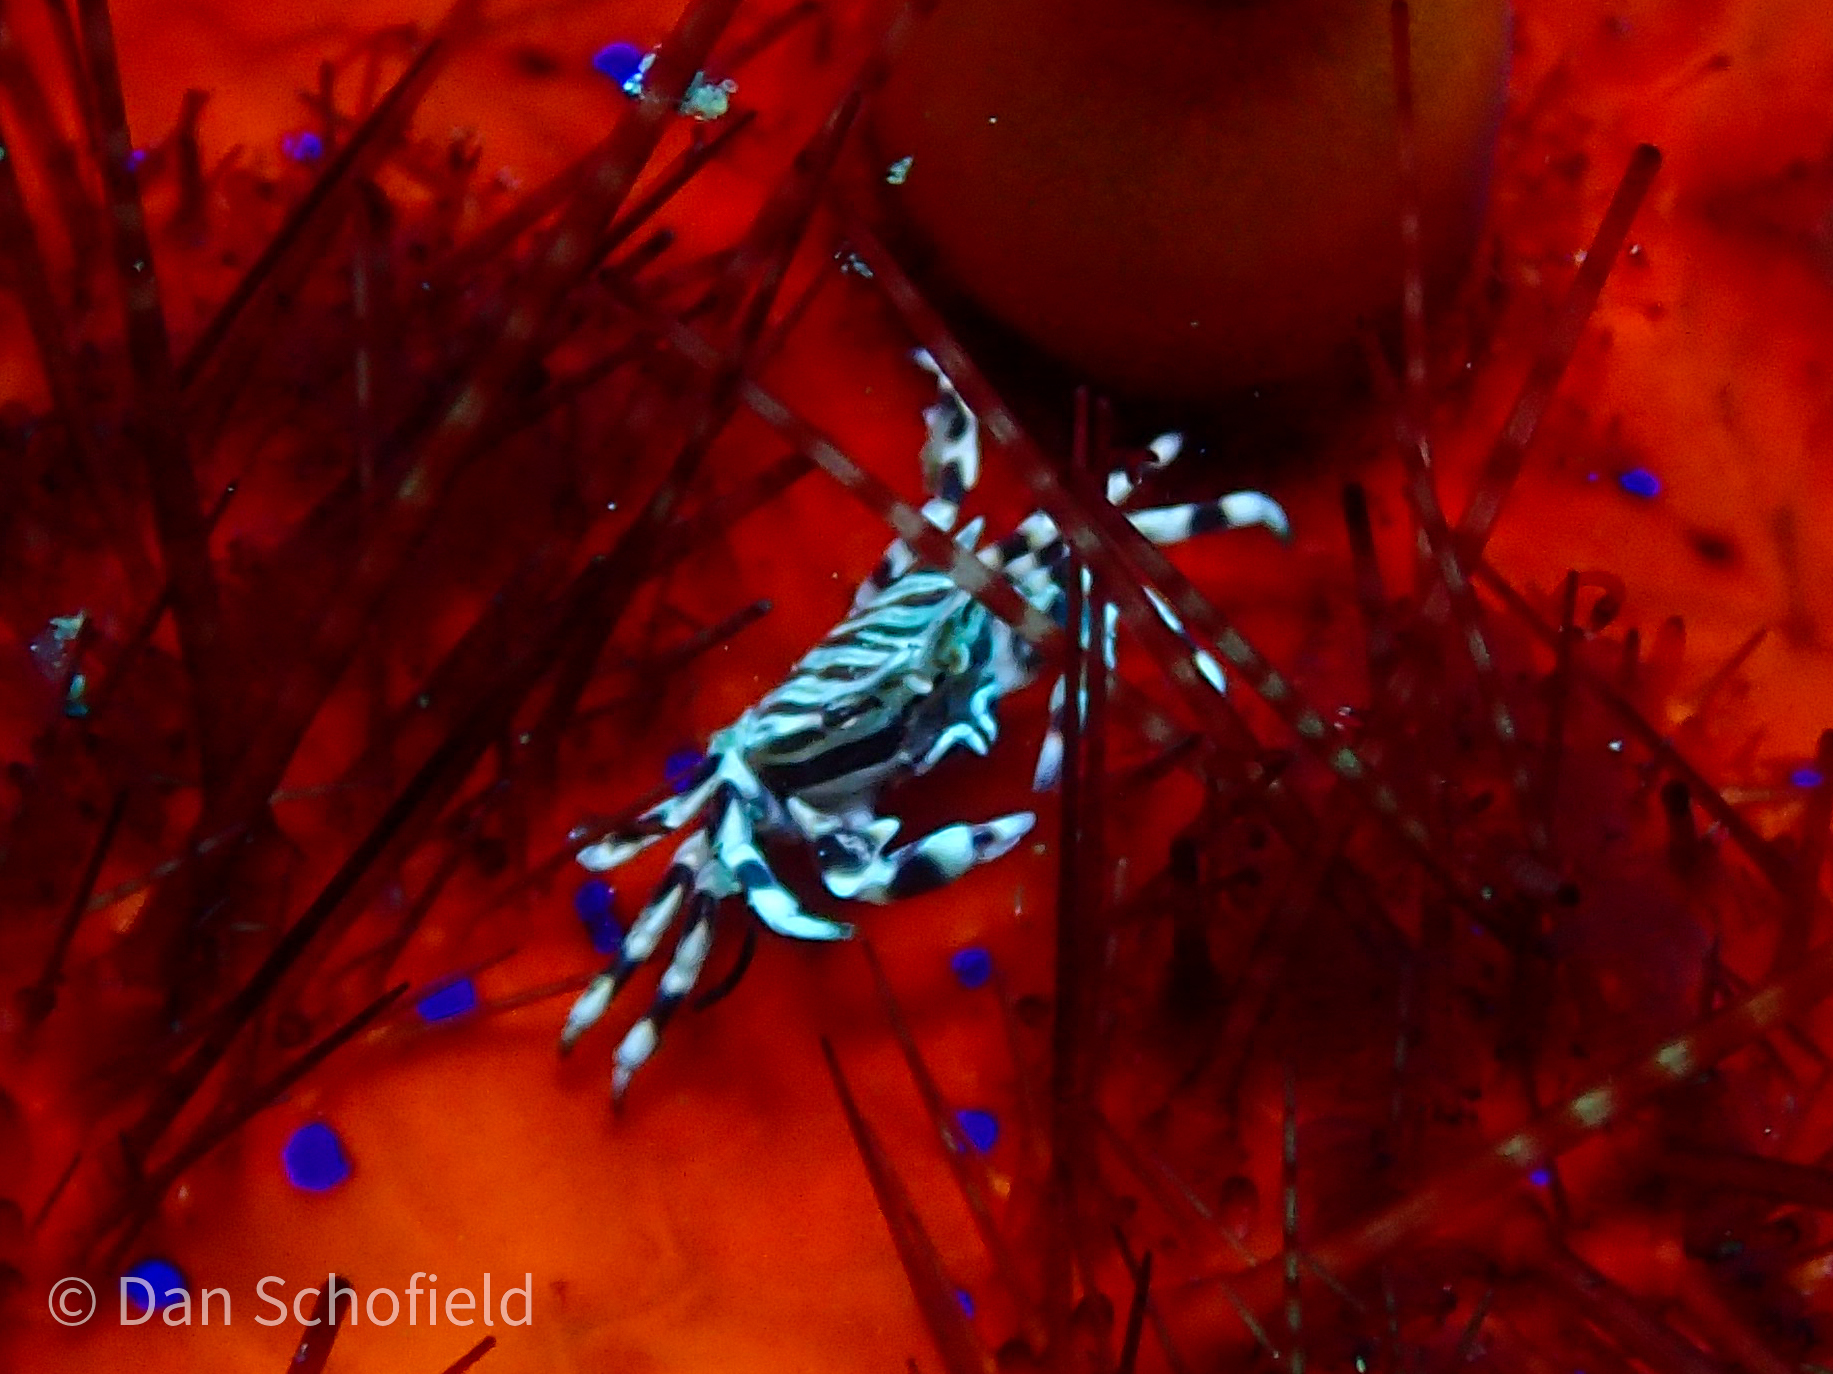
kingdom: Animalia
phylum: Arthropoda
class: Malacostraca
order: Decapoda
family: Pilumnidae
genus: Zebrida
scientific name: Zebrida adamsii
